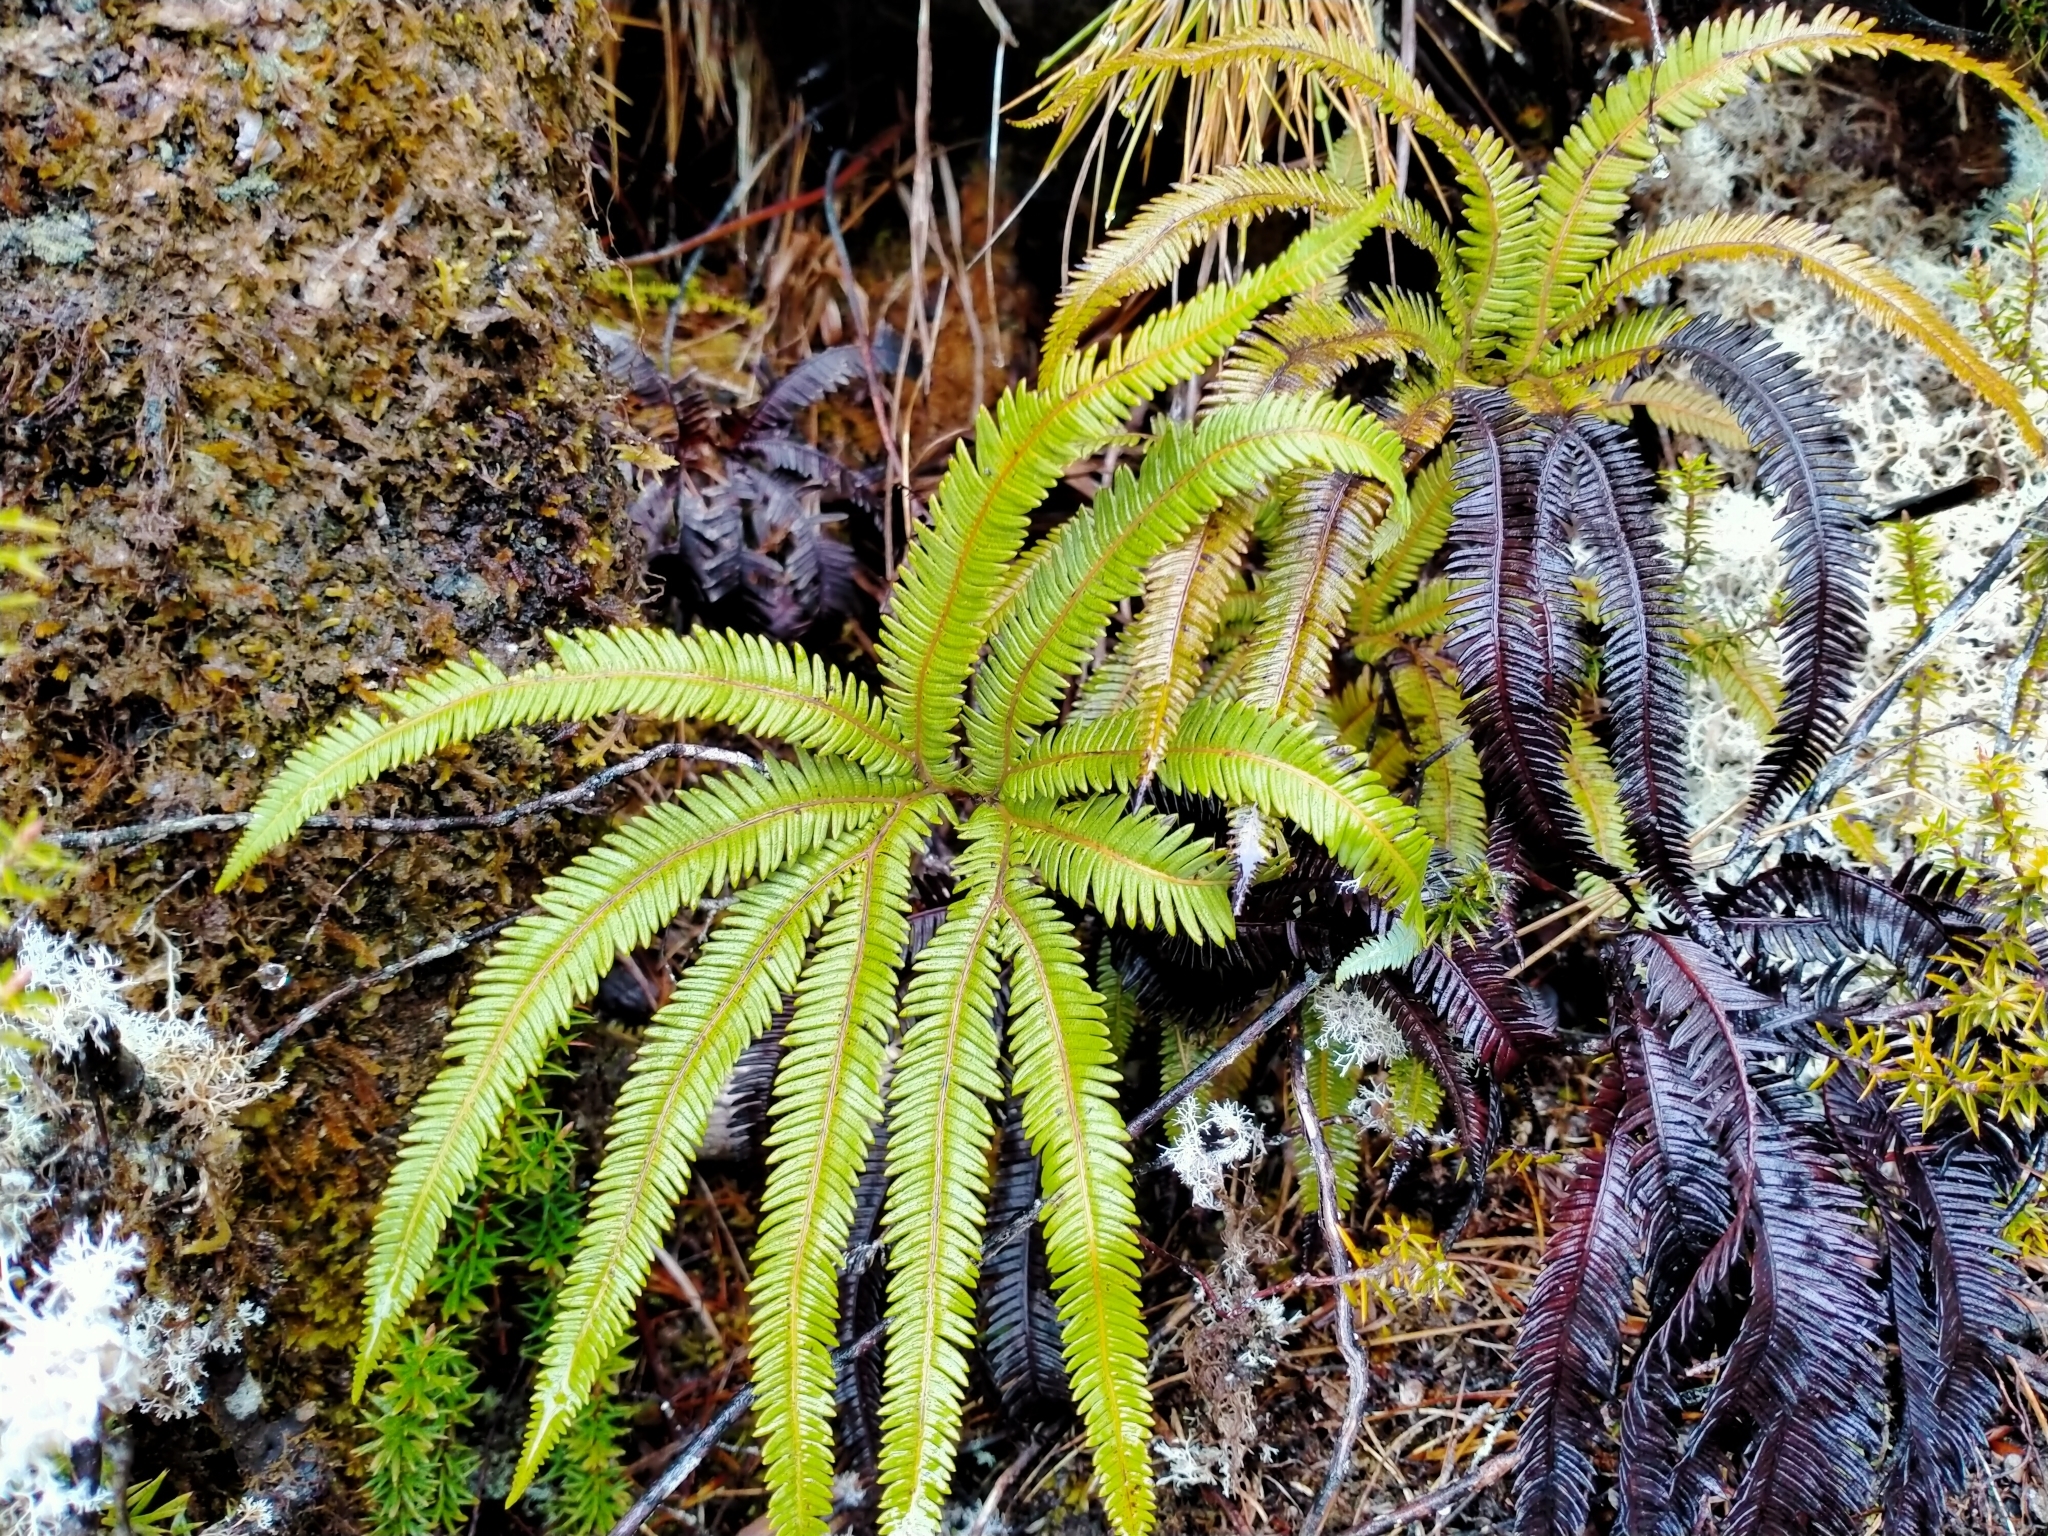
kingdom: Plantae
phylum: Tracheophyta
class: Polypodiopsida
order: Gleicheniales
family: Gleicheniaceae
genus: Sticherus
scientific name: Sticherus cunninghamii
